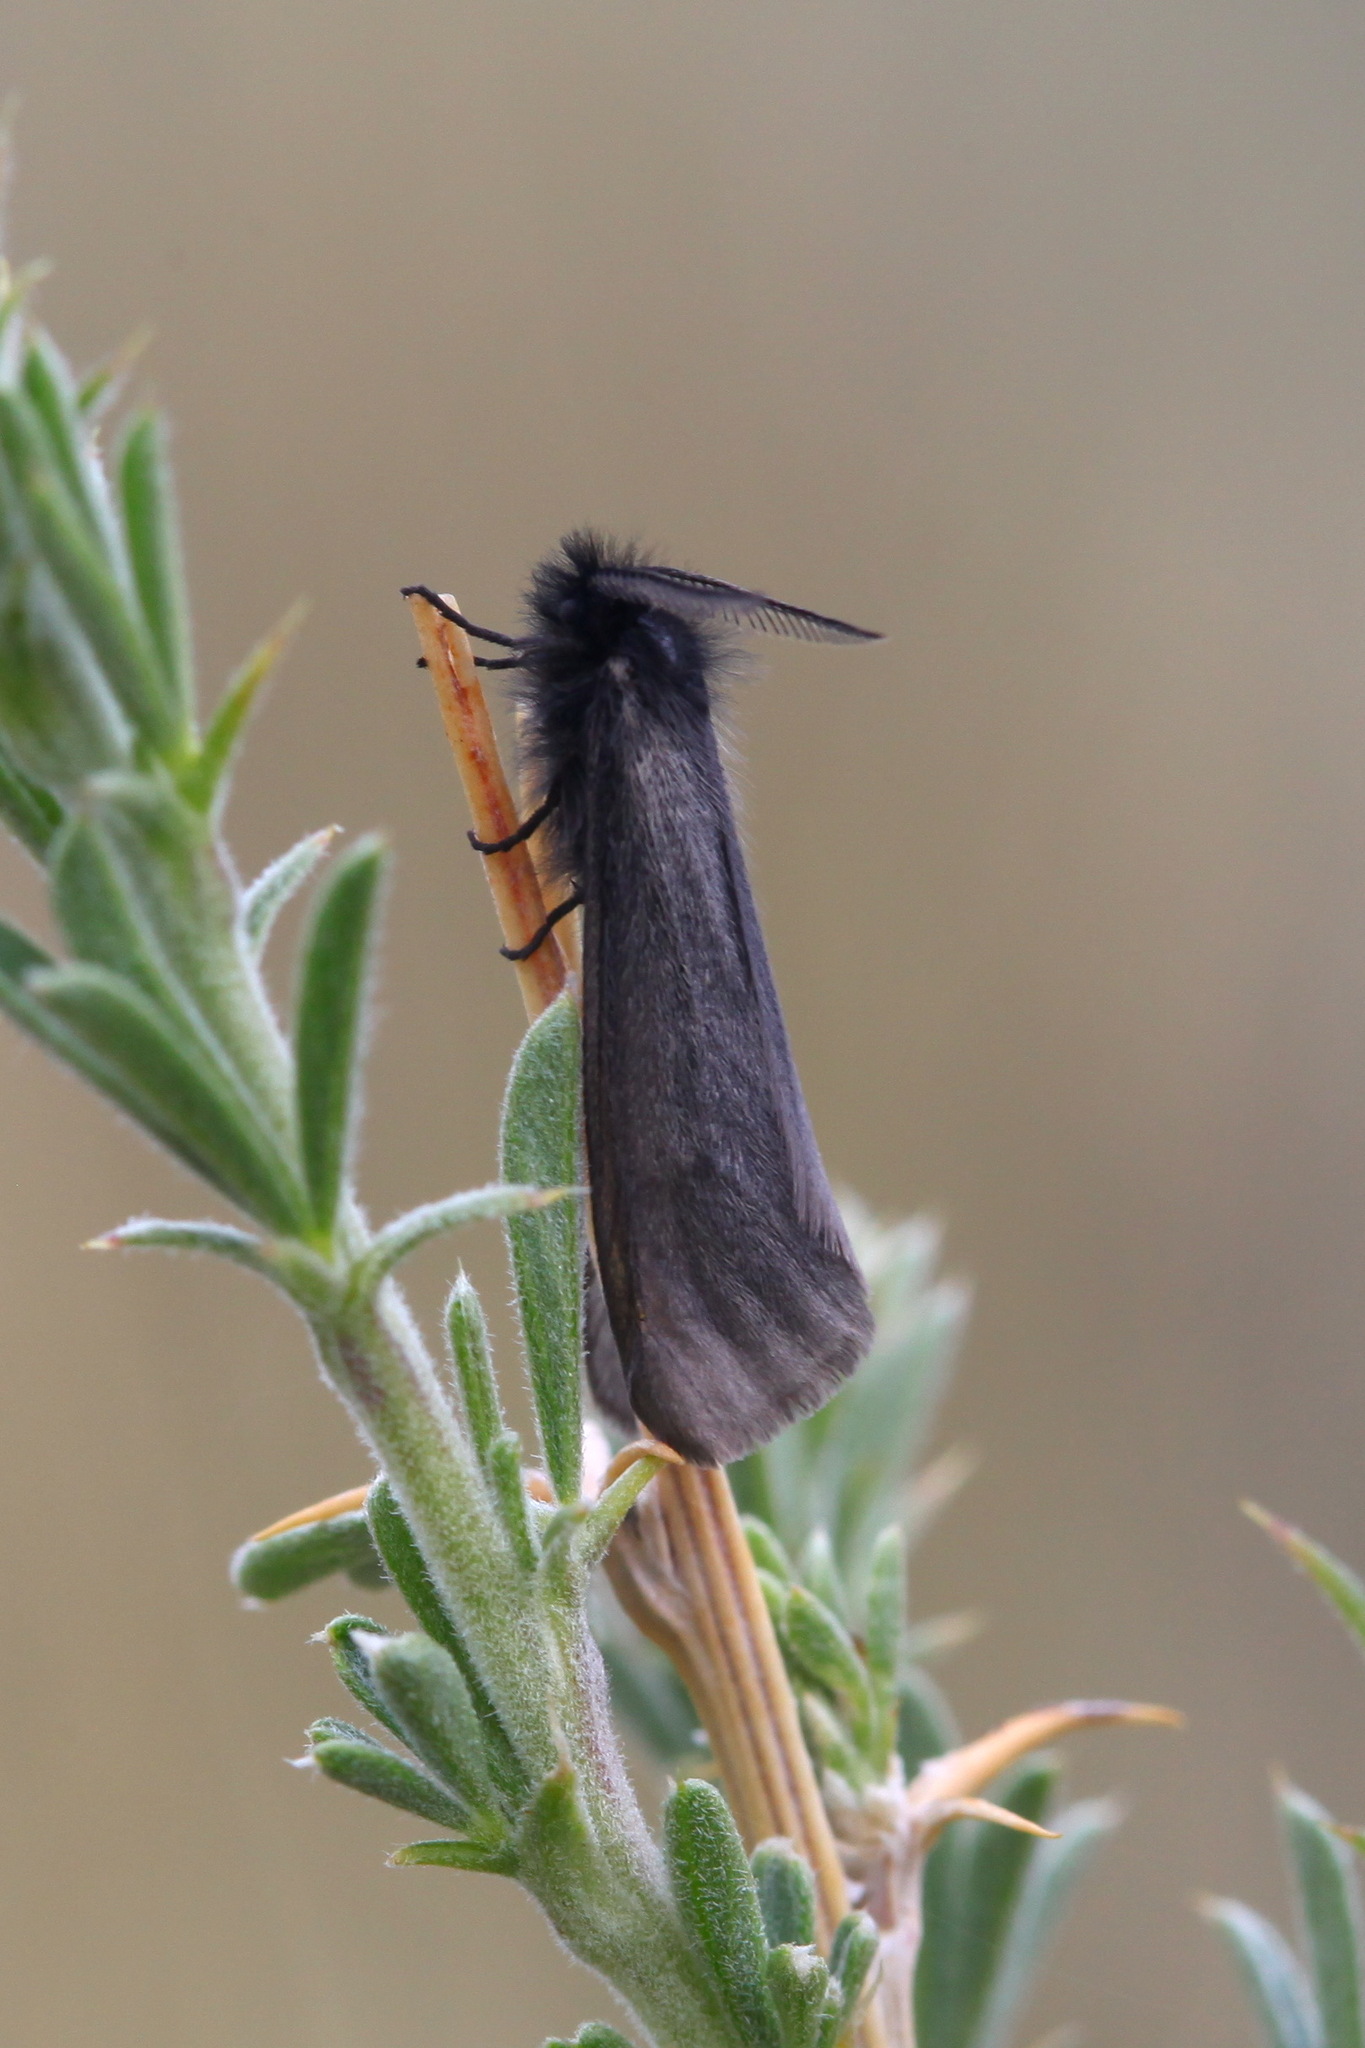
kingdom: Animalia
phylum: Arthropoda
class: Insecta
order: Lepidoptera
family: Erebidae
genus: Epimydia
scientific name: Epimydia dialampa
